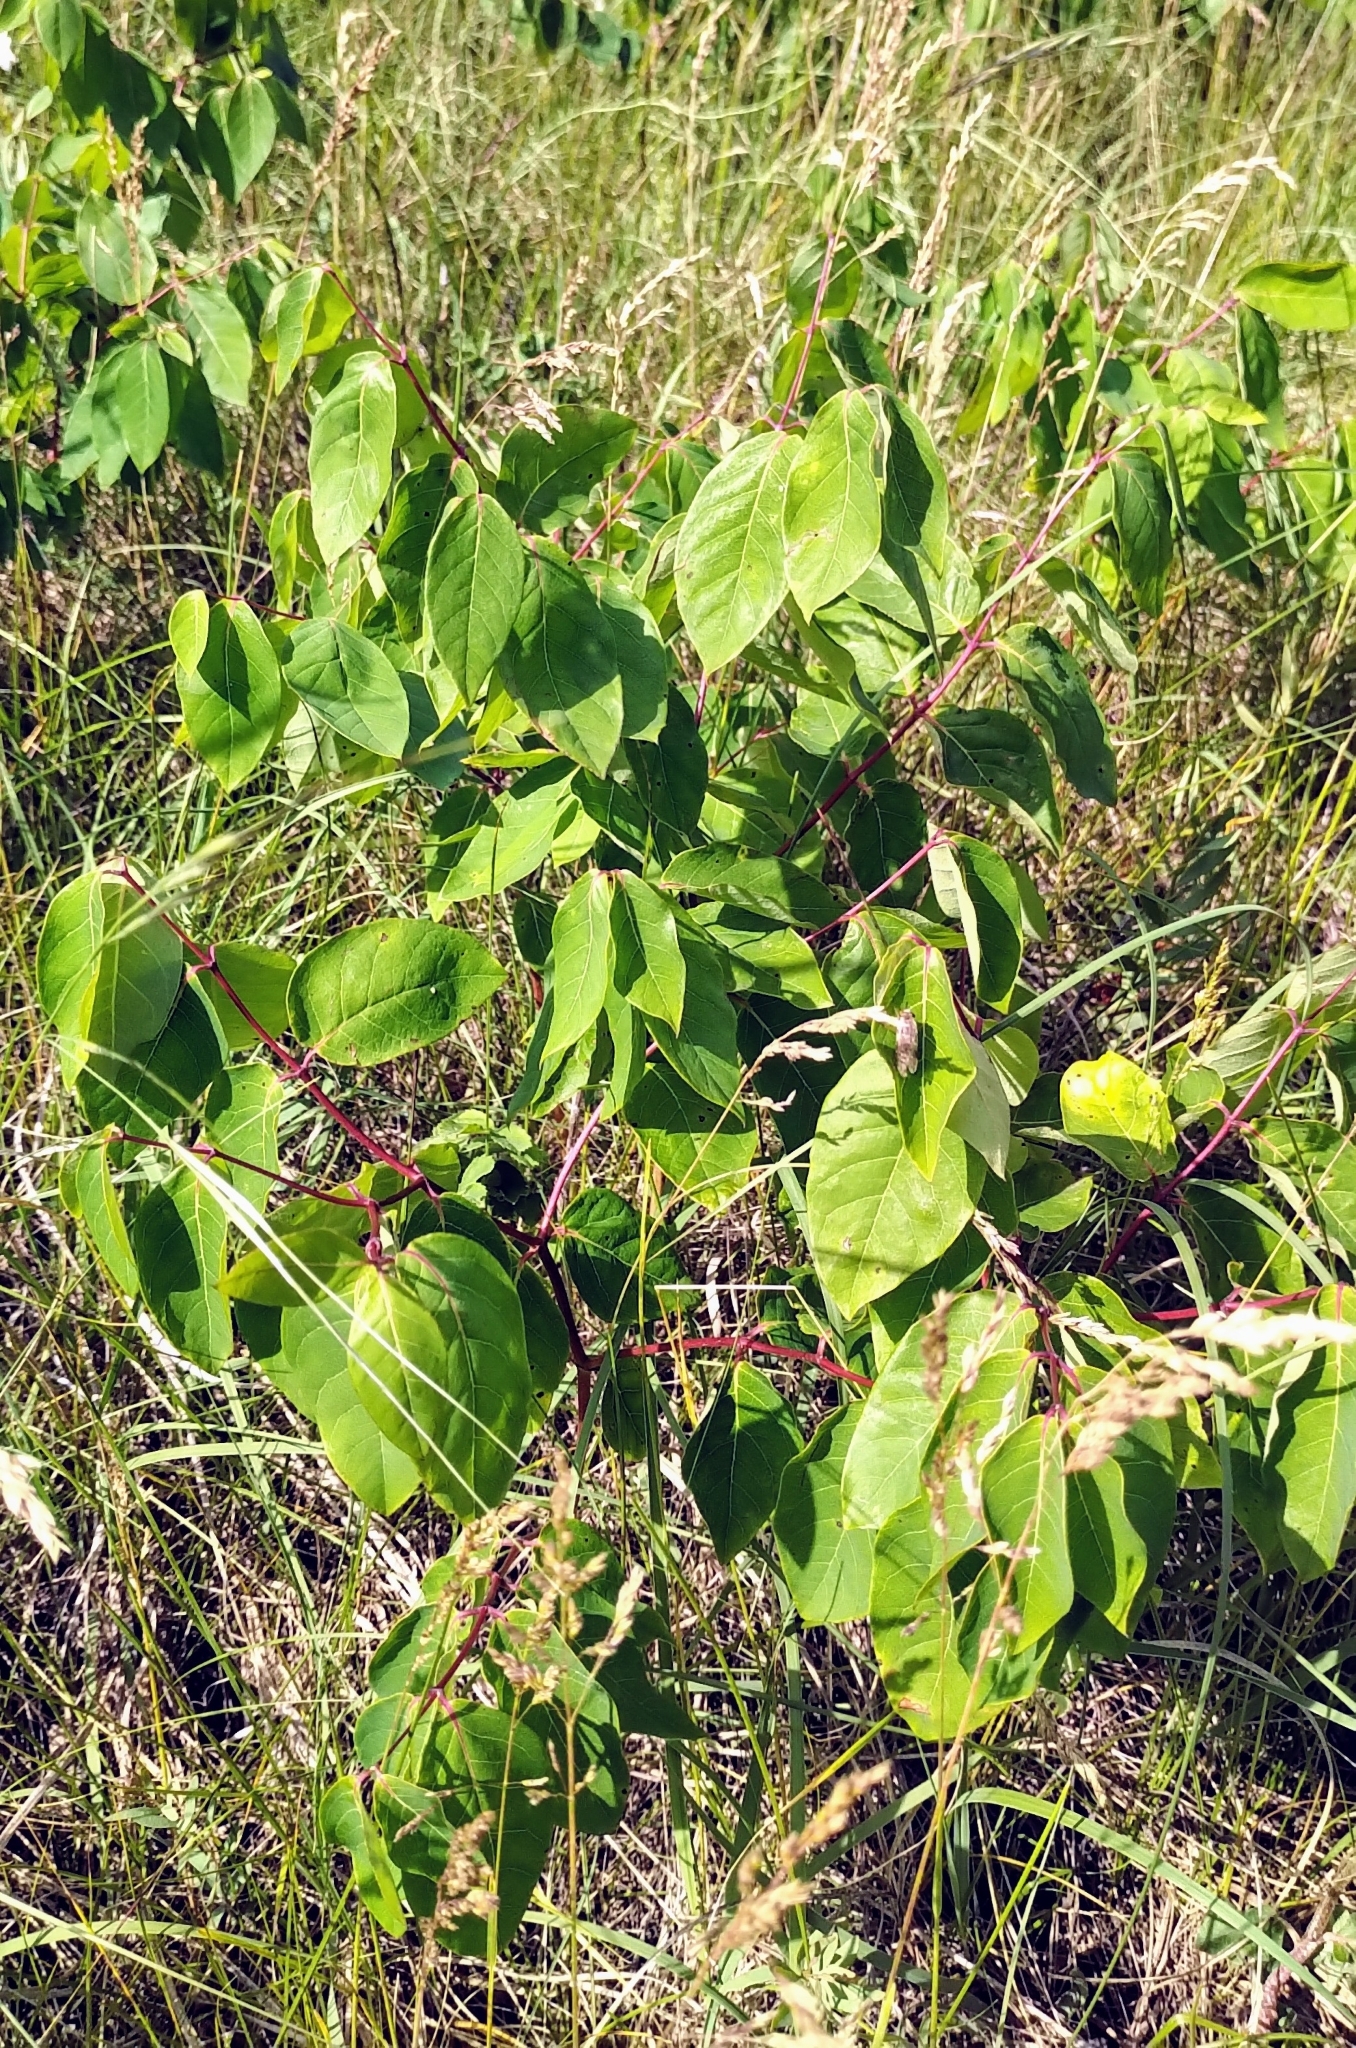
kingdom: Plantae
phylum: Tracheophyta
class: Magnoliopsida
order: Gentianales
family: Apocynaceae
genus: Apocynum
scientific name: Apocynum androsaemifolium
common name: Spreading dogbane
